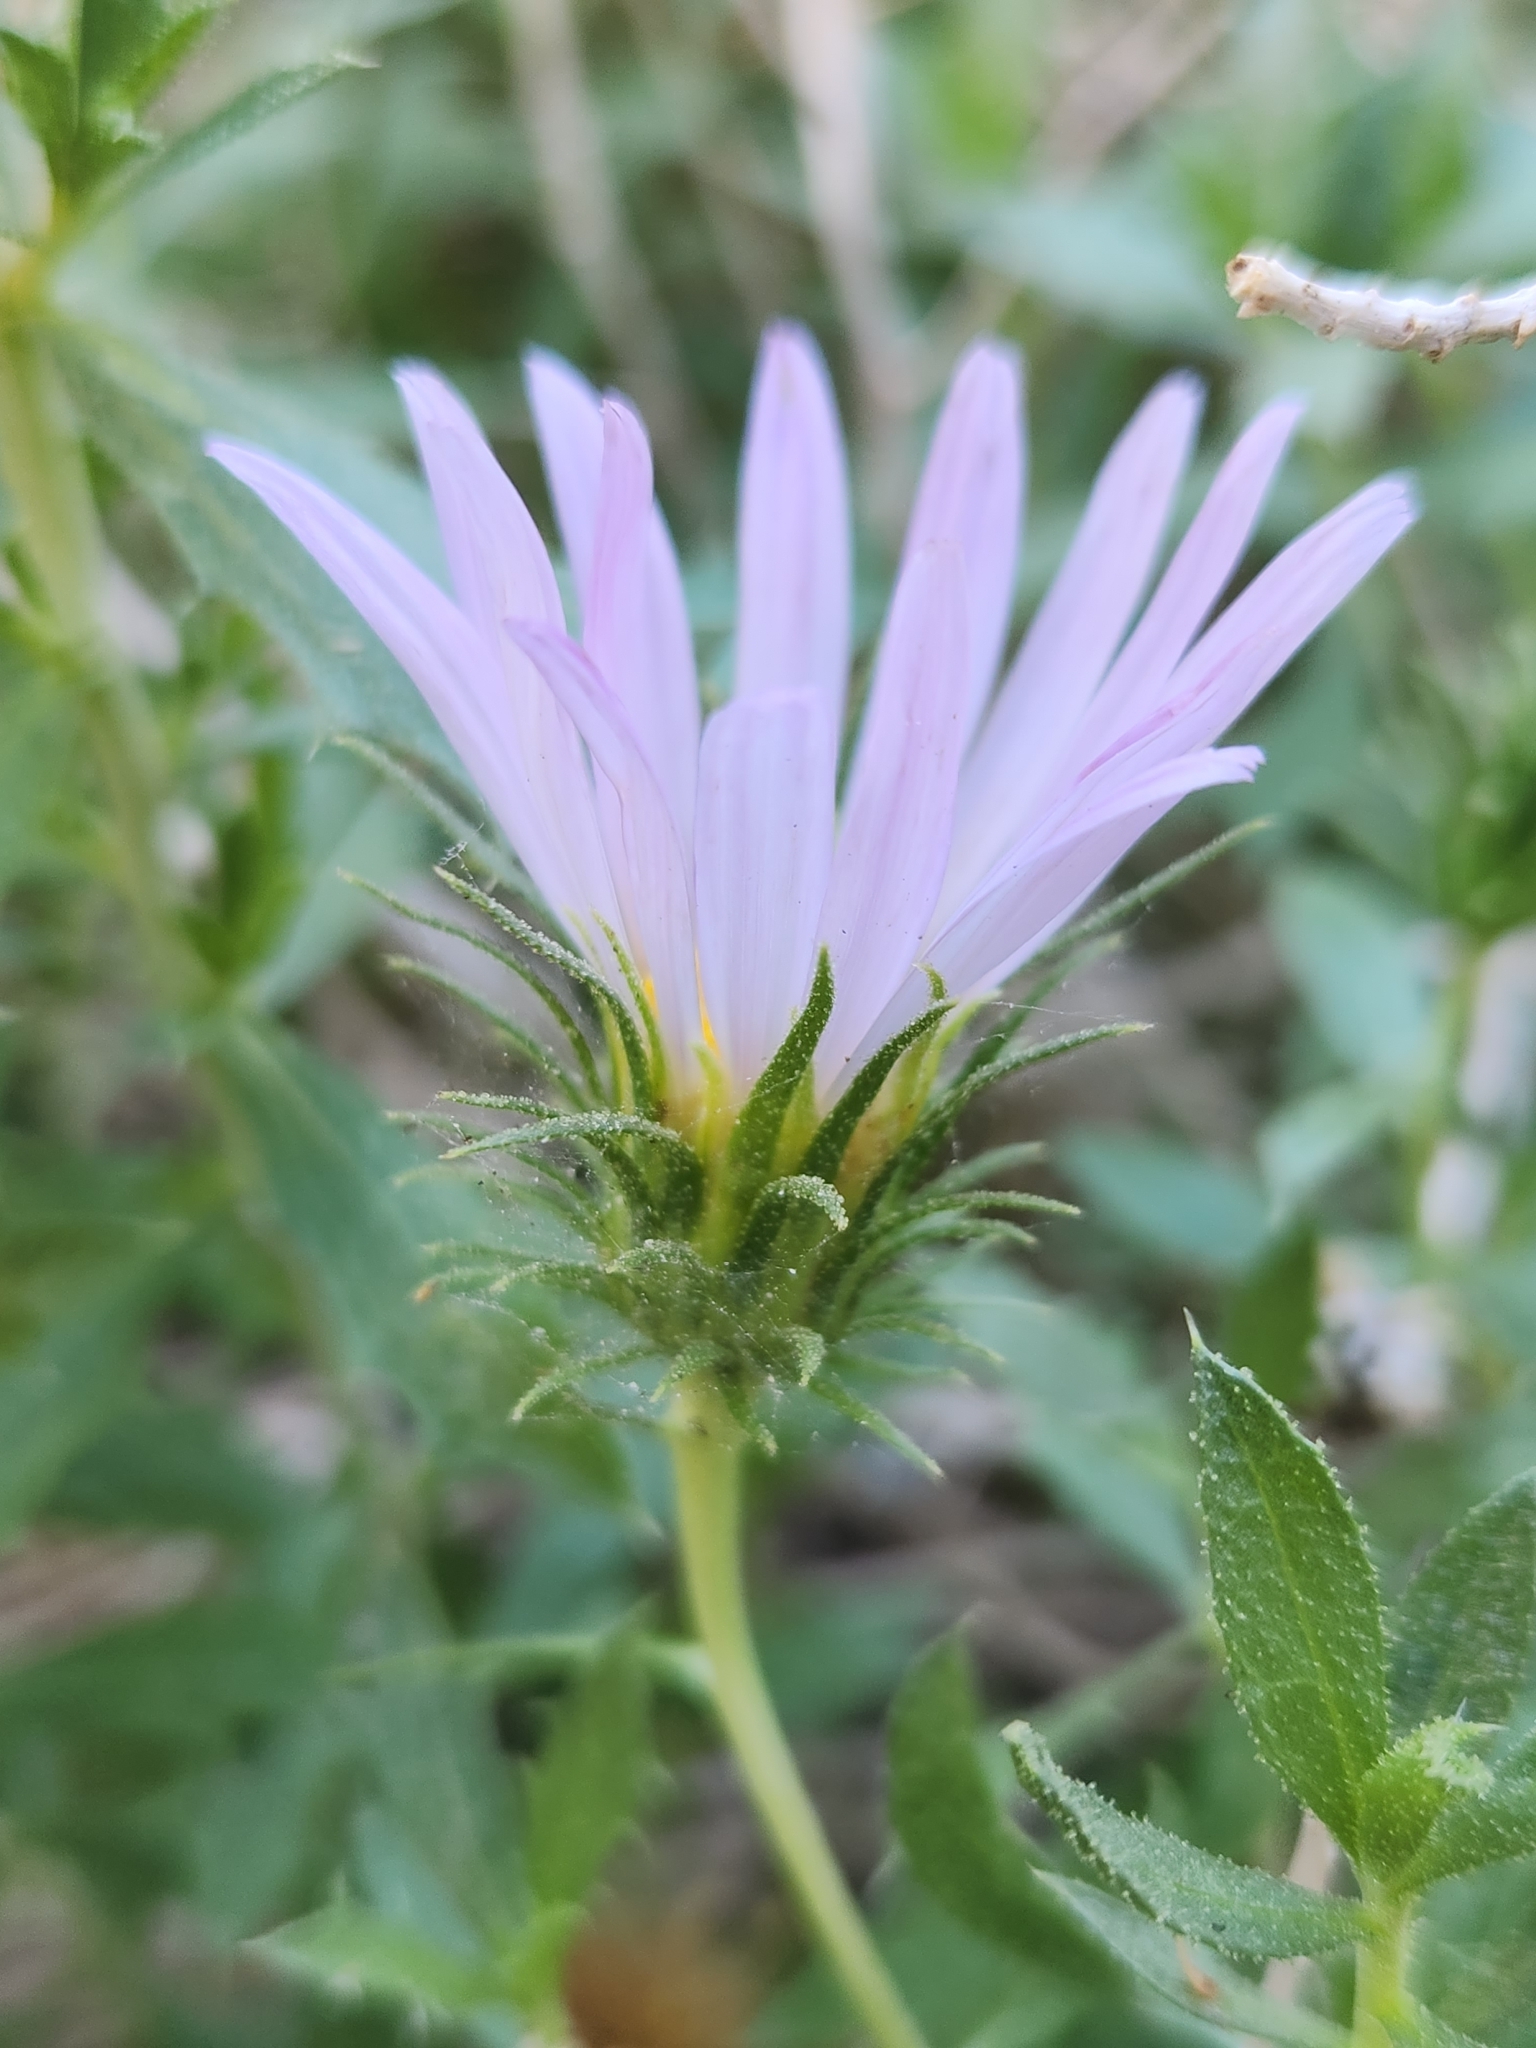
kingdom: Plantae
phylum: Tracheophyta
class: Magnoliopsida
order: Asterales
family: Asteraceae
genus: Xylorhiza
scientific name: Xylorhiza cognata
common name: Mecca woody-aster
